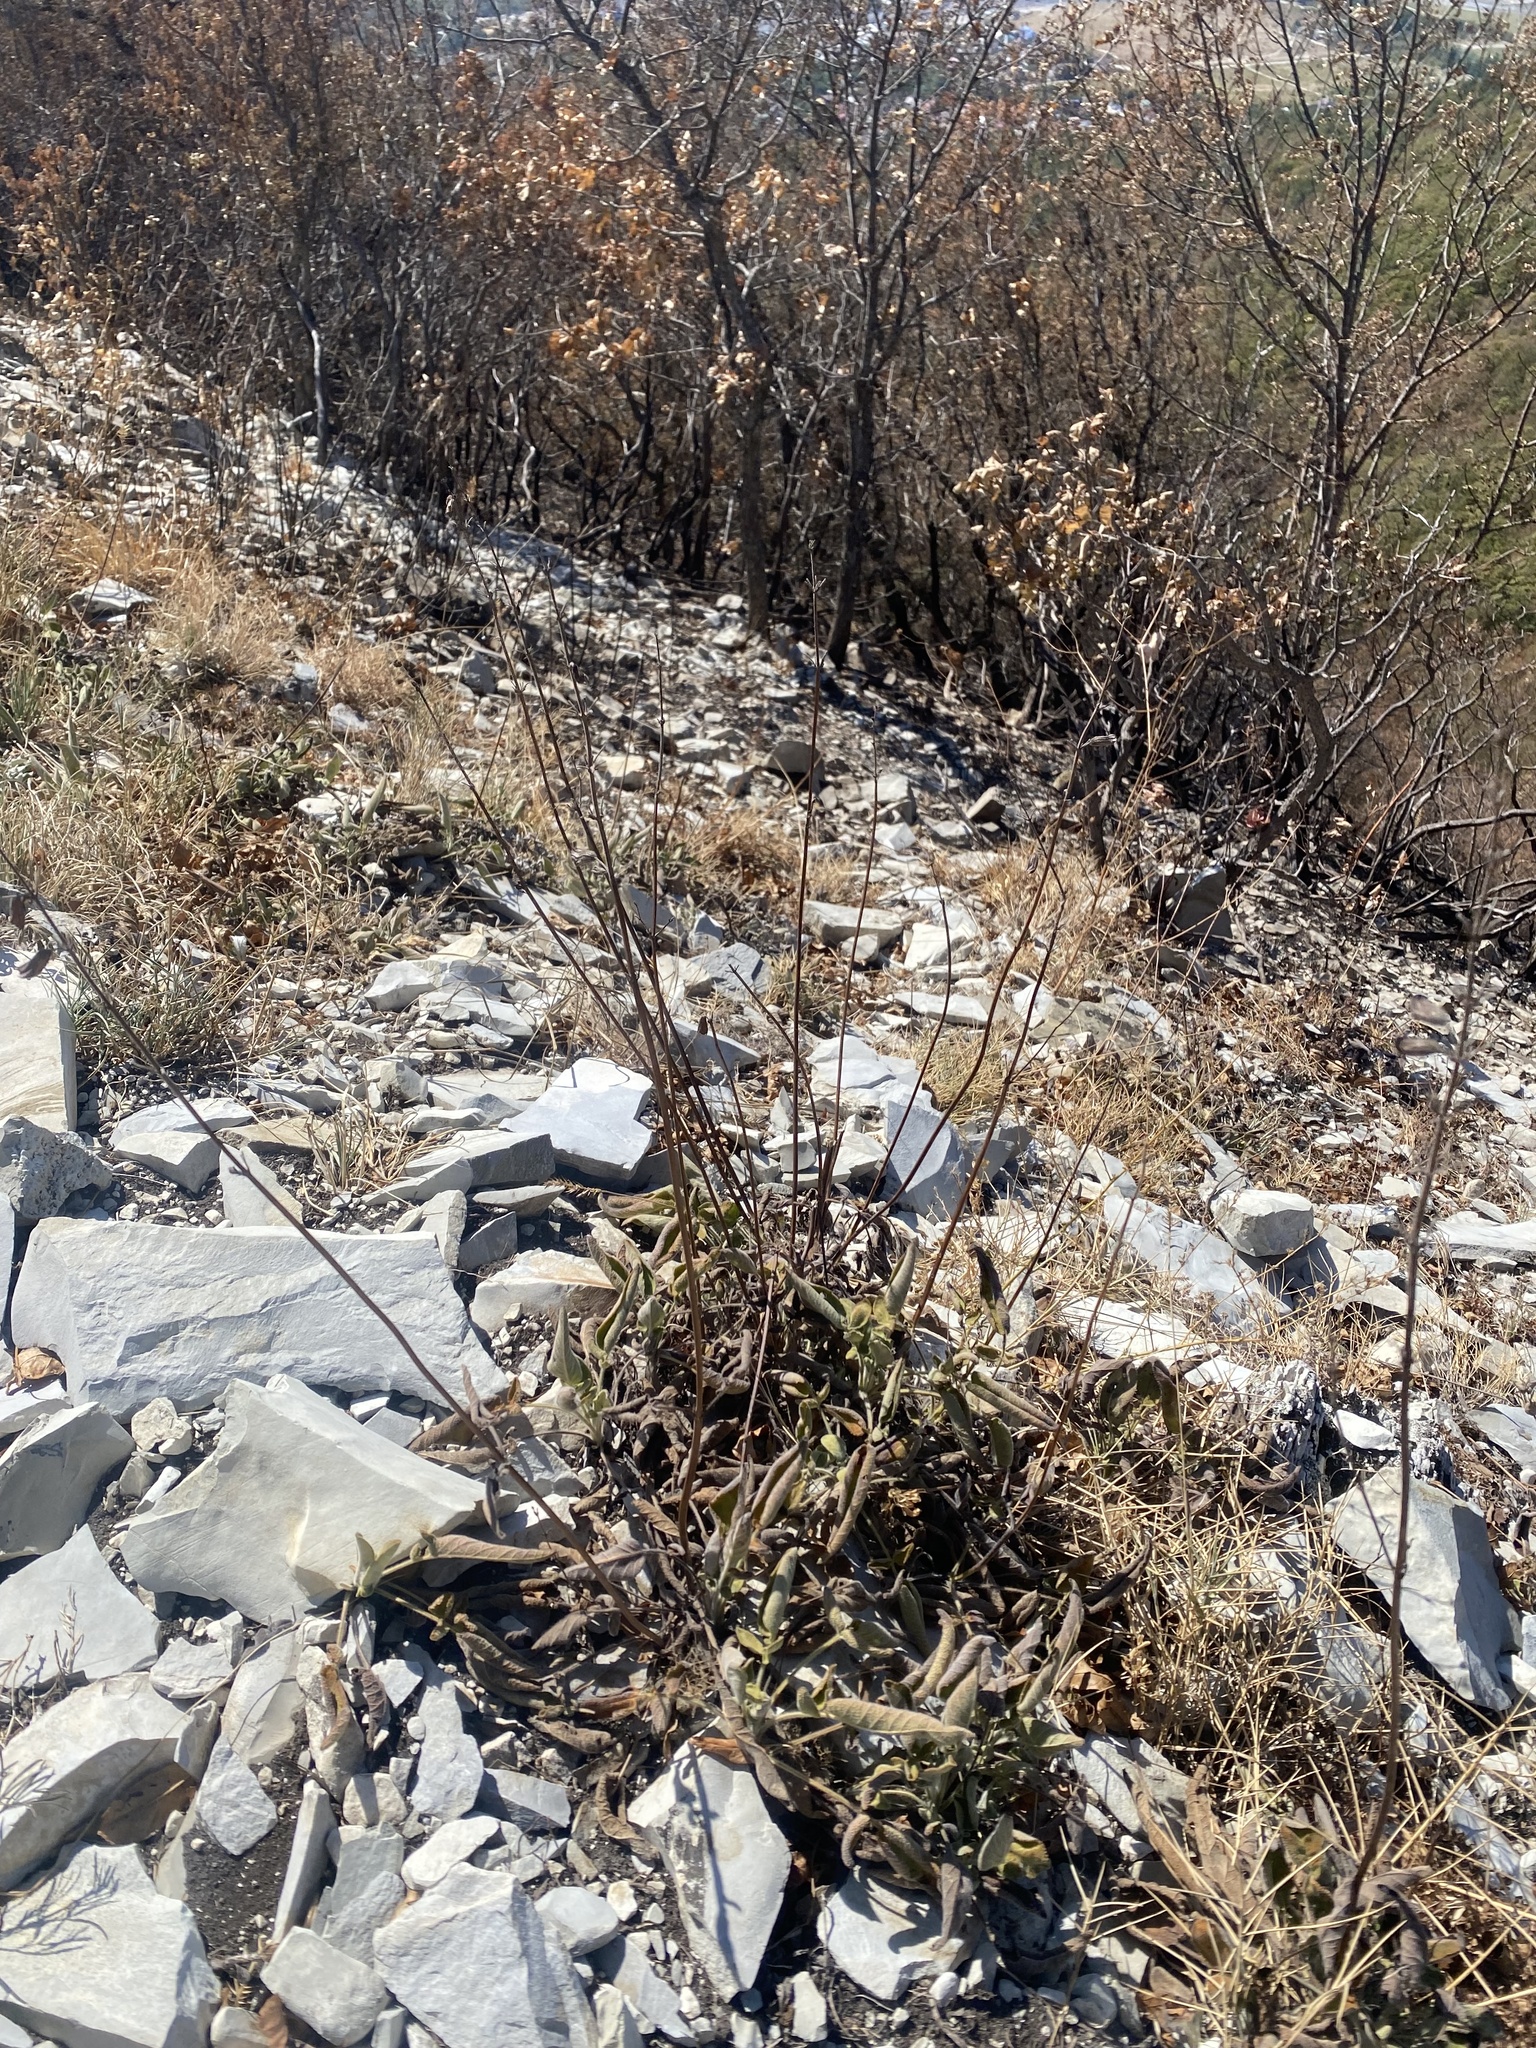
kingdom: Plantae
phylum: Tracheophyta
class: Magnoliopsida
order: Lamiales
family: Lamiaceae
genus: Salvia
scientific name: Salvia ringens
